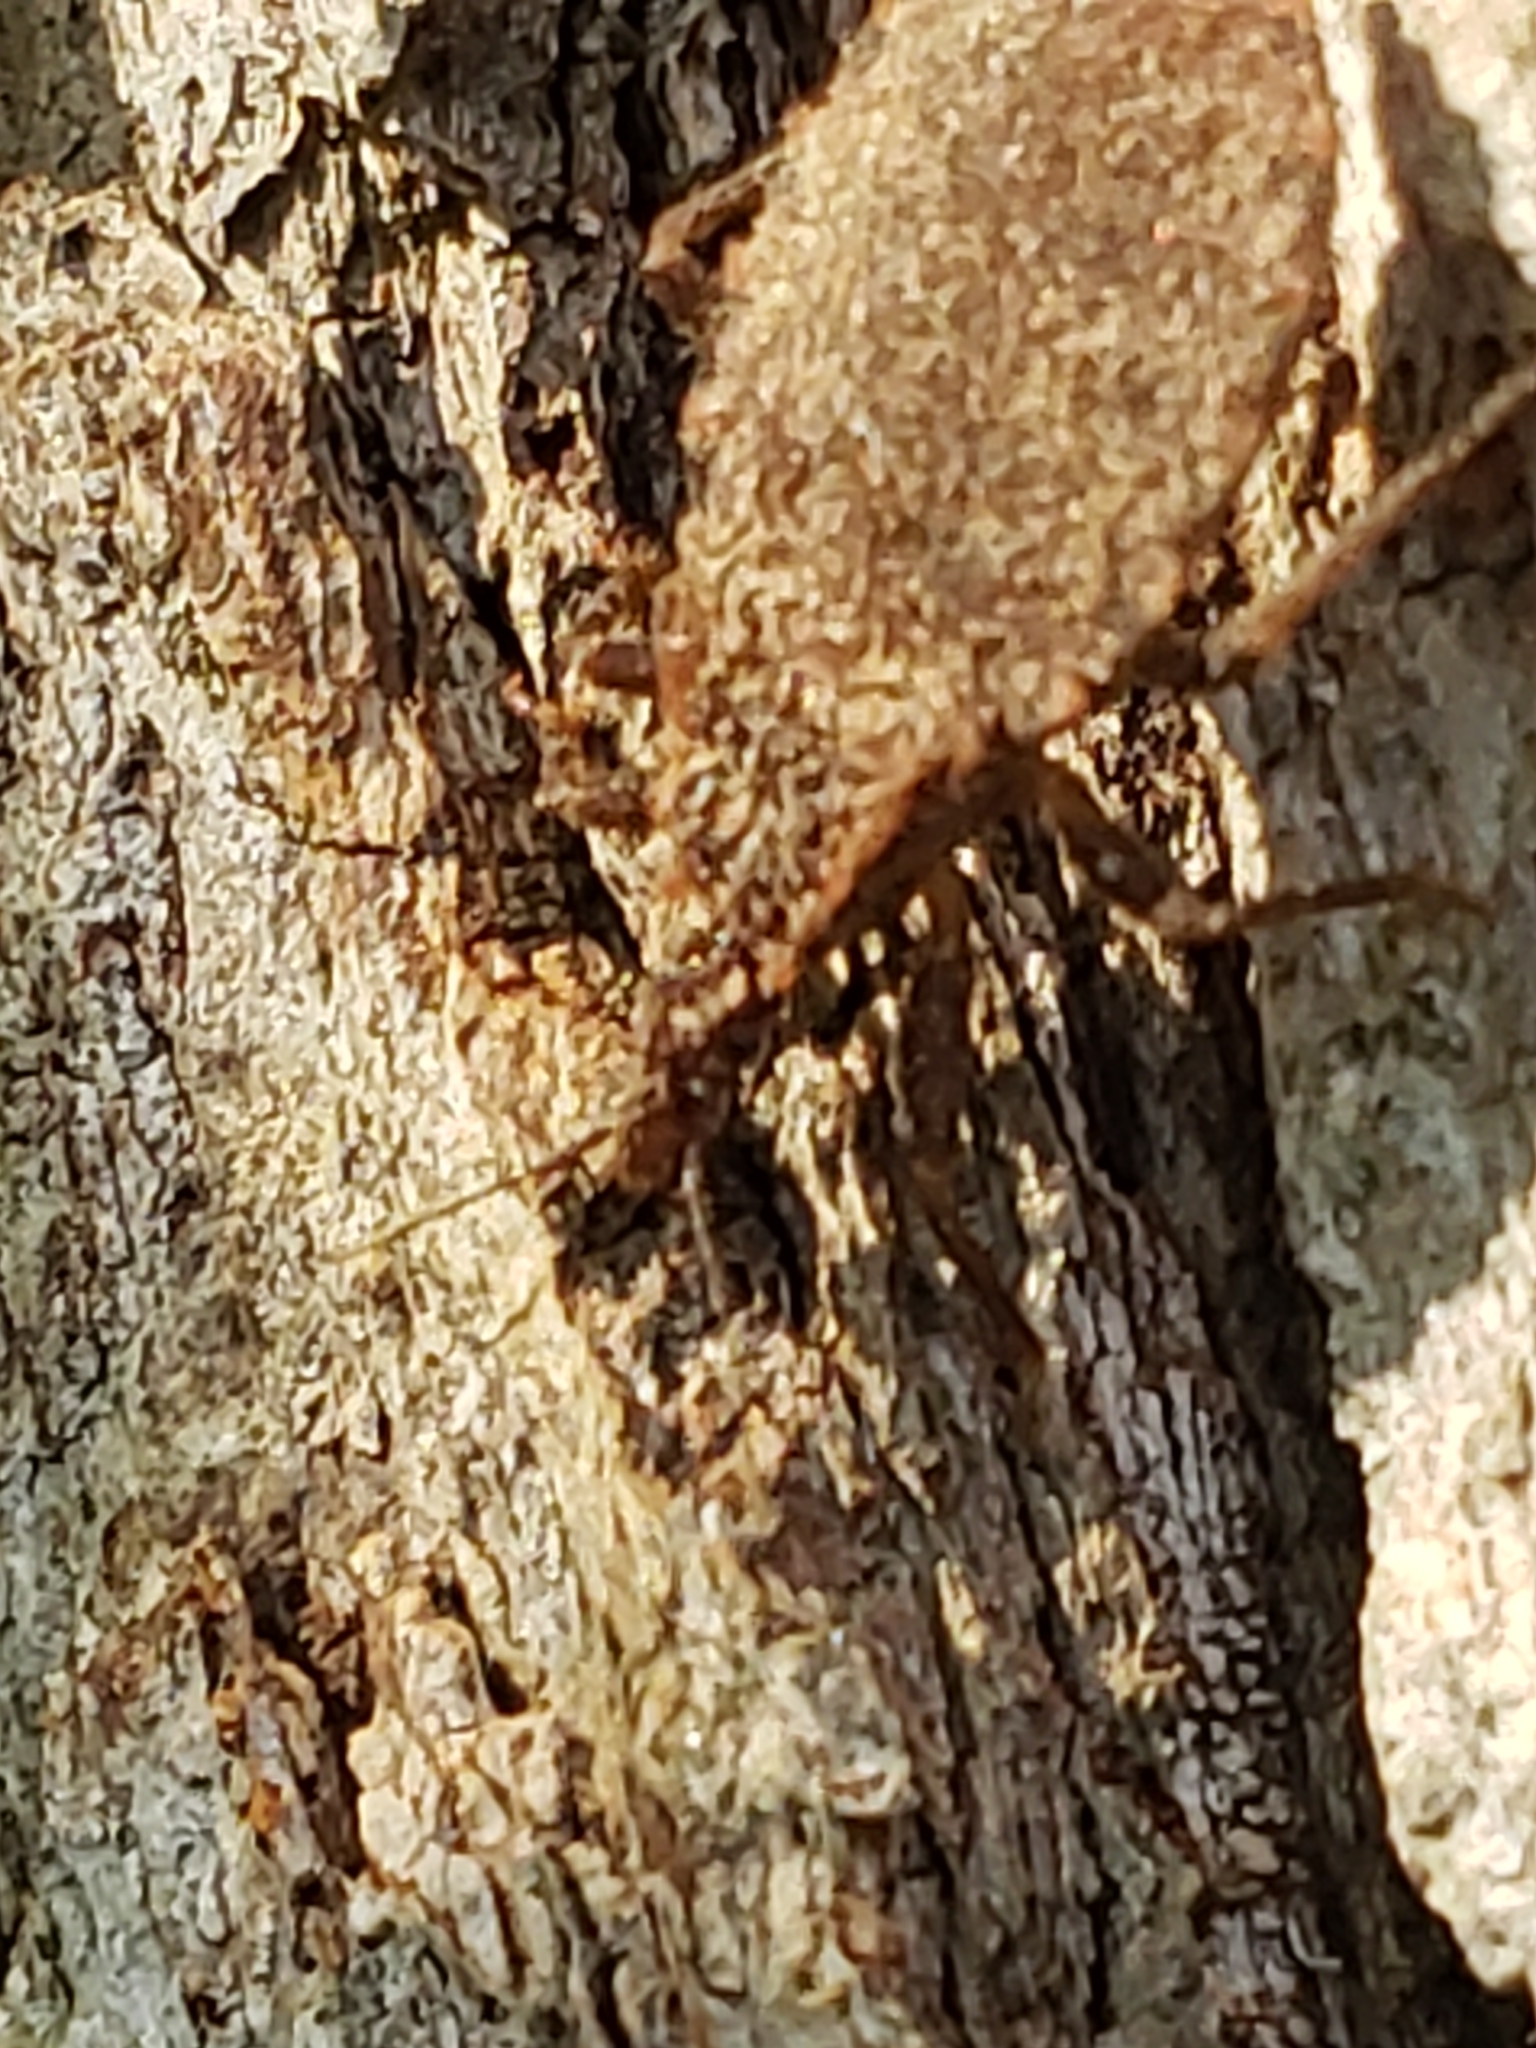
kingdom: Animalia
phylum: Arthropoda
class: Insecta
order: Hemiptera
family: Reduviidae
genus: Triatoma
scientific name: Triatoma sanguisuga
